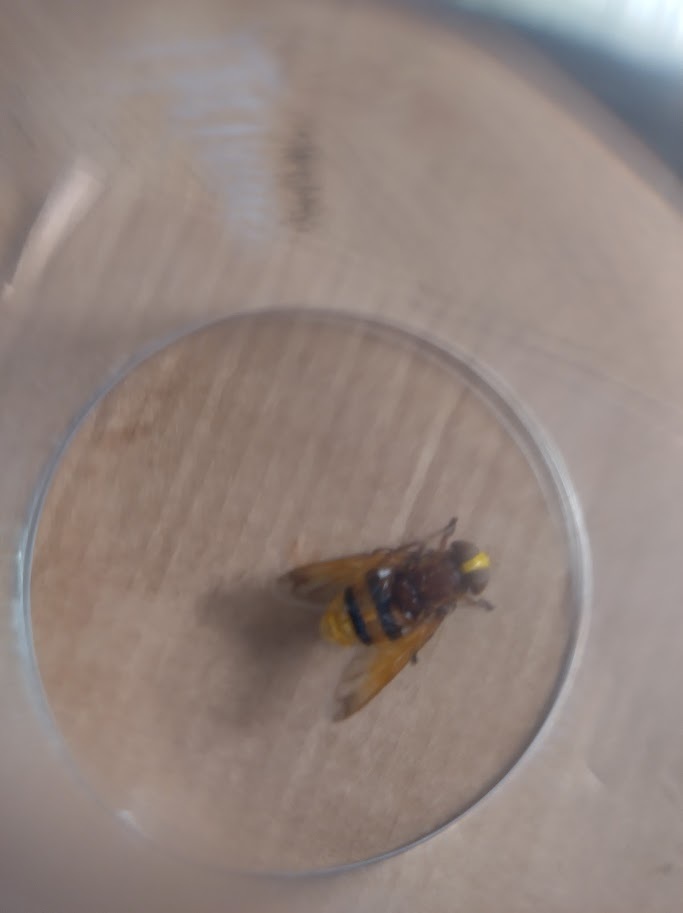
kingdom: Animalia
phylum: Arthropoda
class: Insecta
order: Diptera
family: Syrphidae
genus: Volucella
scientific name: Volucella zonaria
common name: Hornet hoverfly
